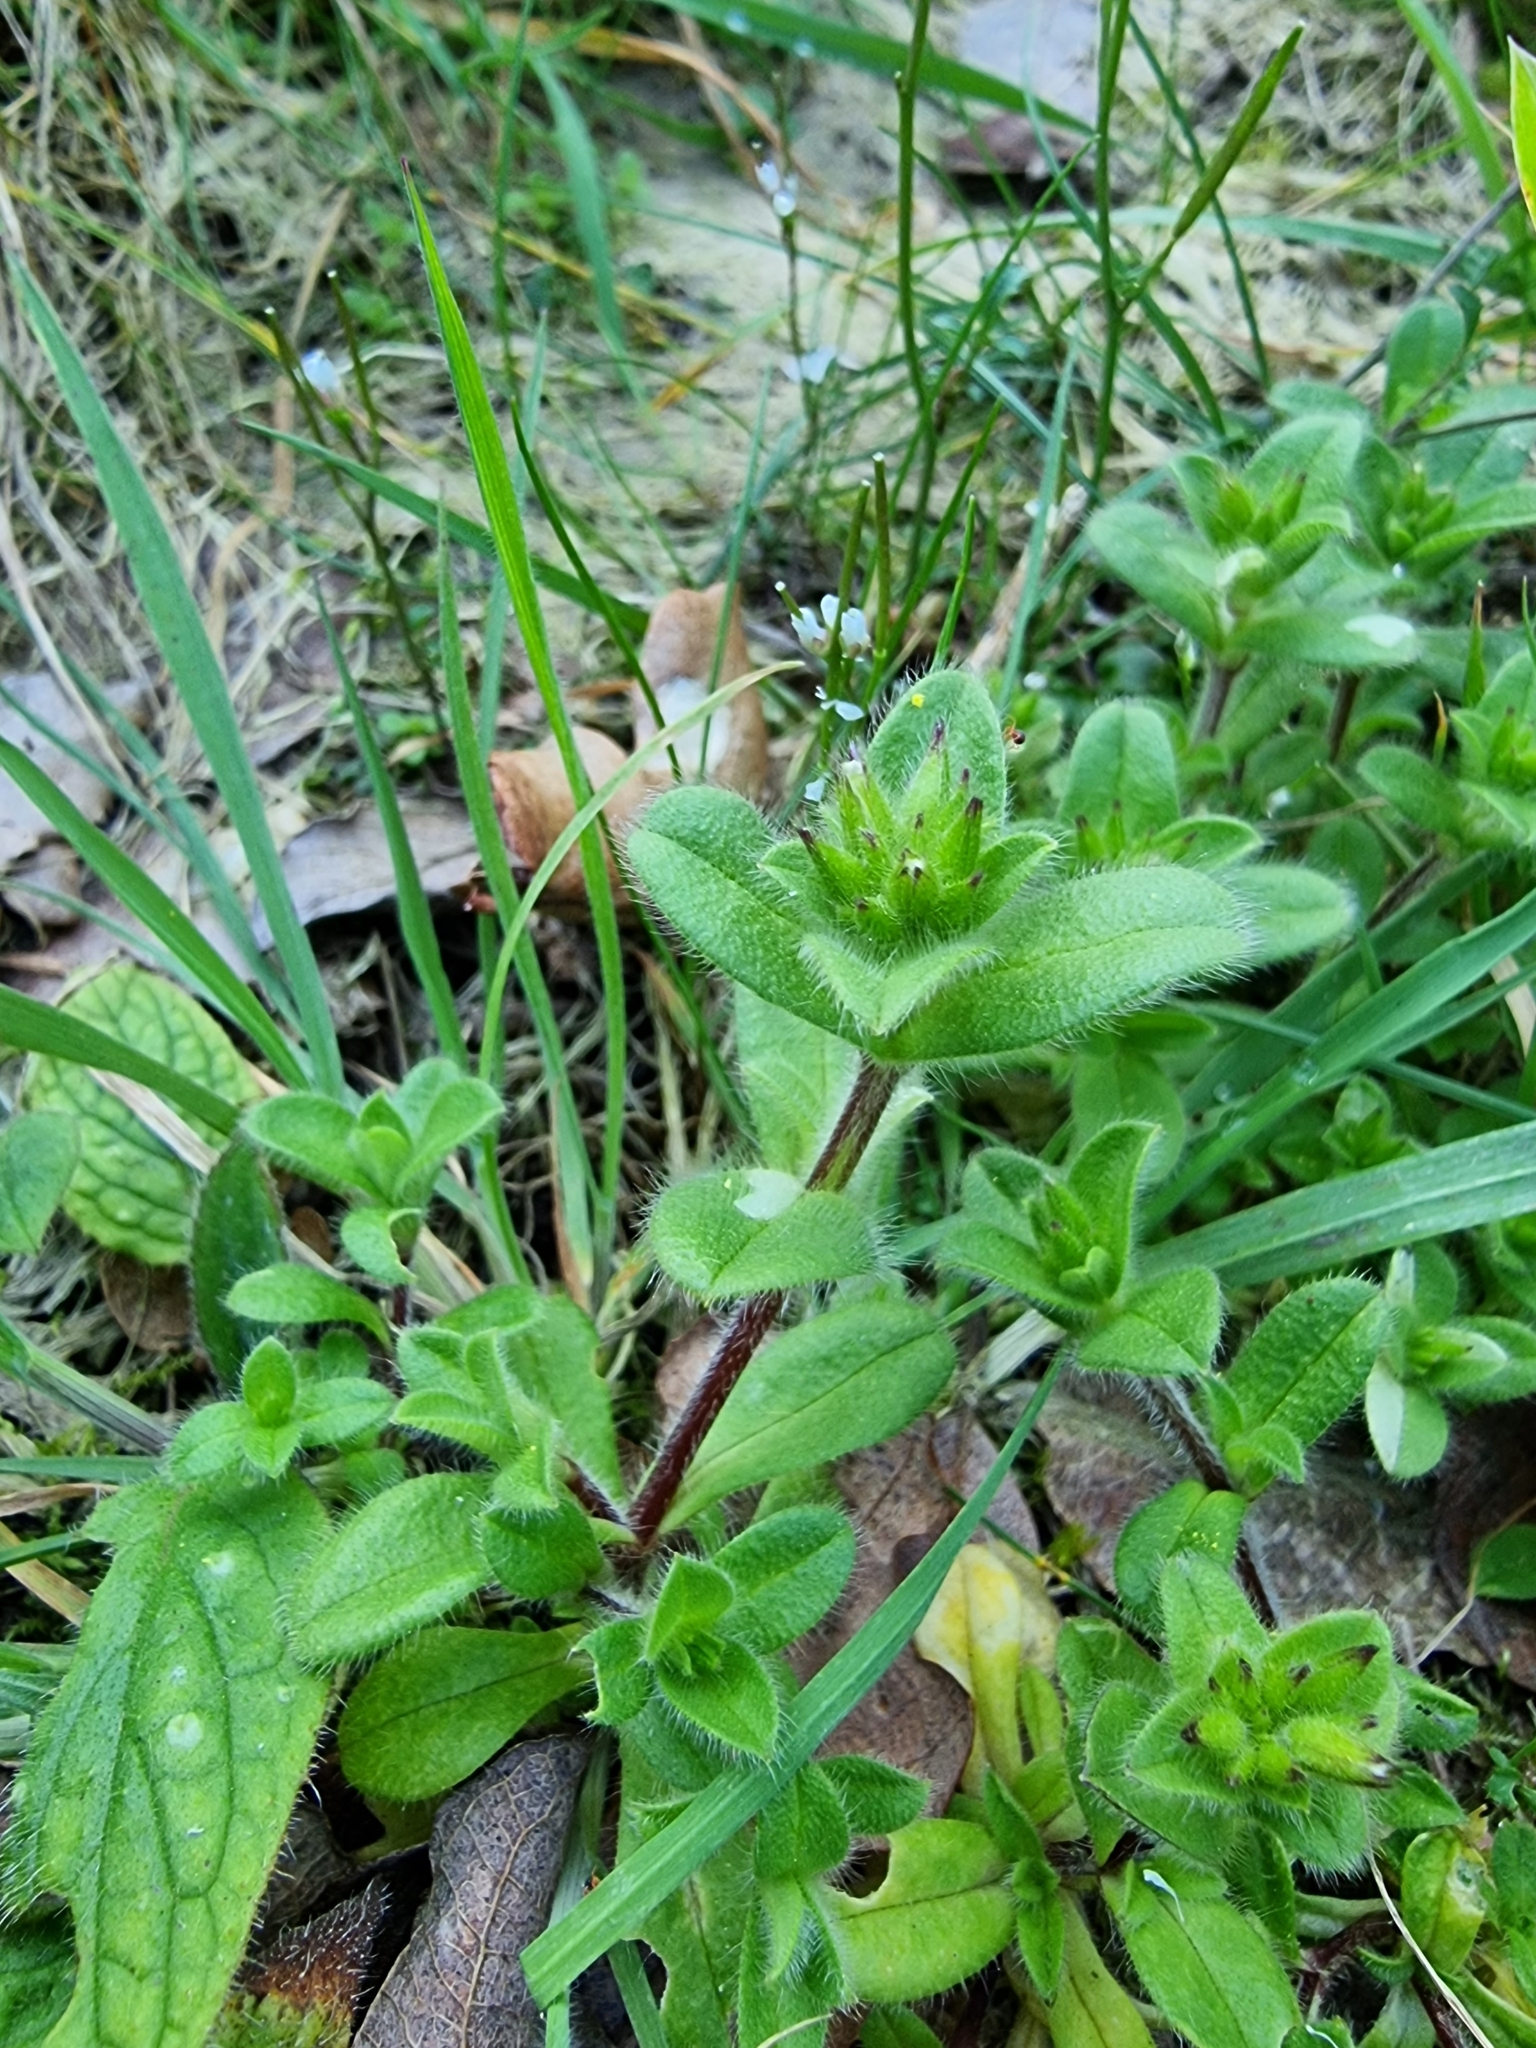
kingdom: Plantae
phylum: Tracheophyta
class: Magnoliopsida
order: Caryophyllales
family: Caryophyllaceae
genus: Cerastium
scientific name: Cerastium fontanum
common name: Common mouse-ear
